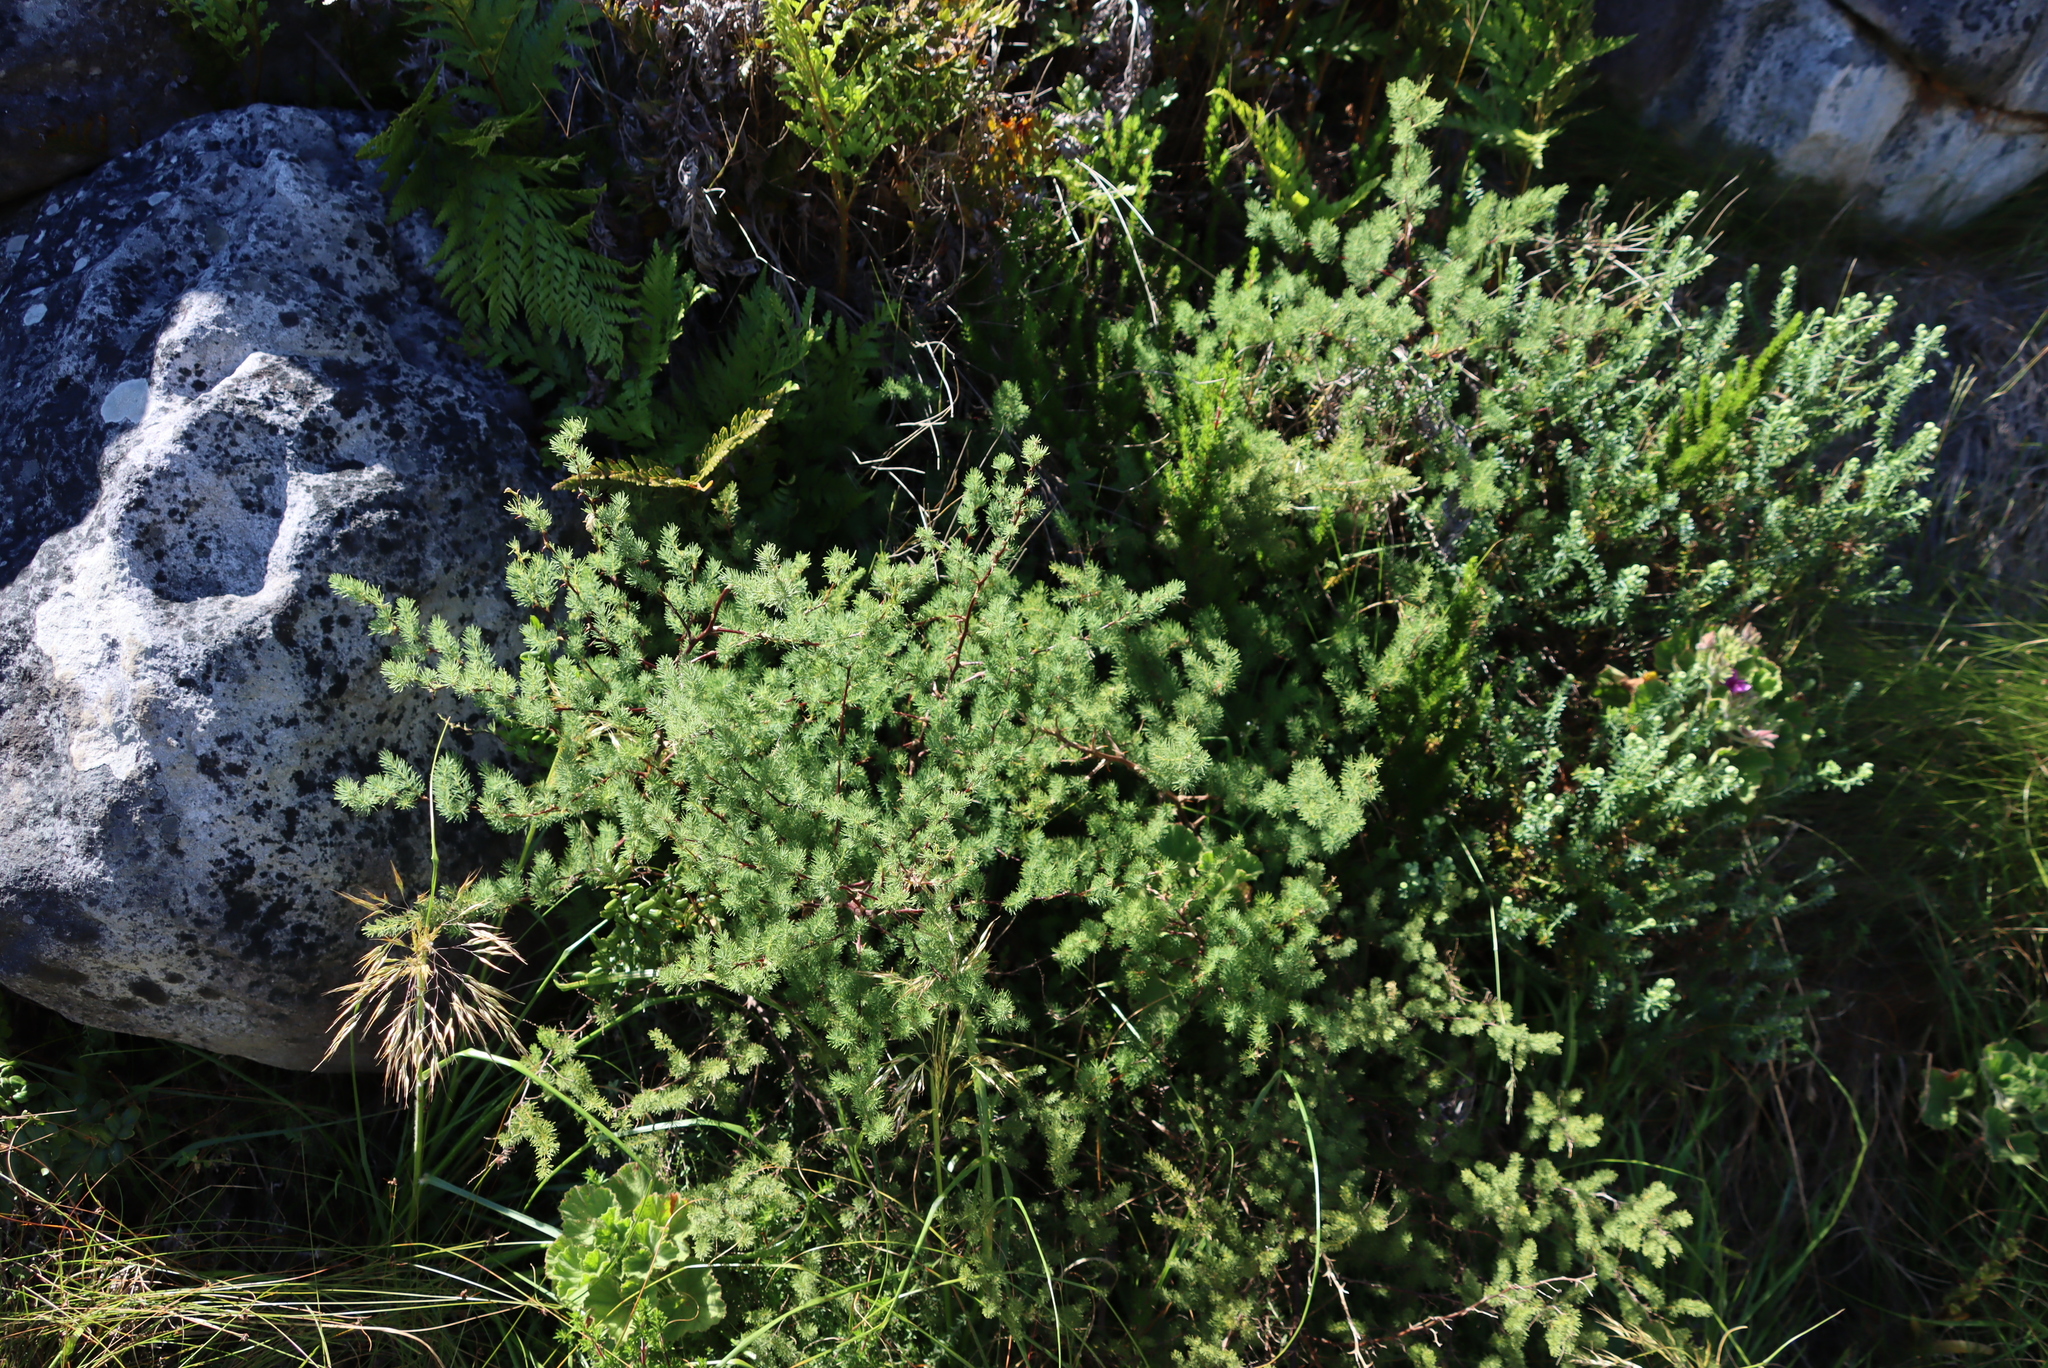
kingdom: Plantae
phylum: Tracheophyta
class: Liliopsida
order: Asparagales
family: Asparagaceae
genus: Asparagus
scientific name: Asparagus rubicundus
